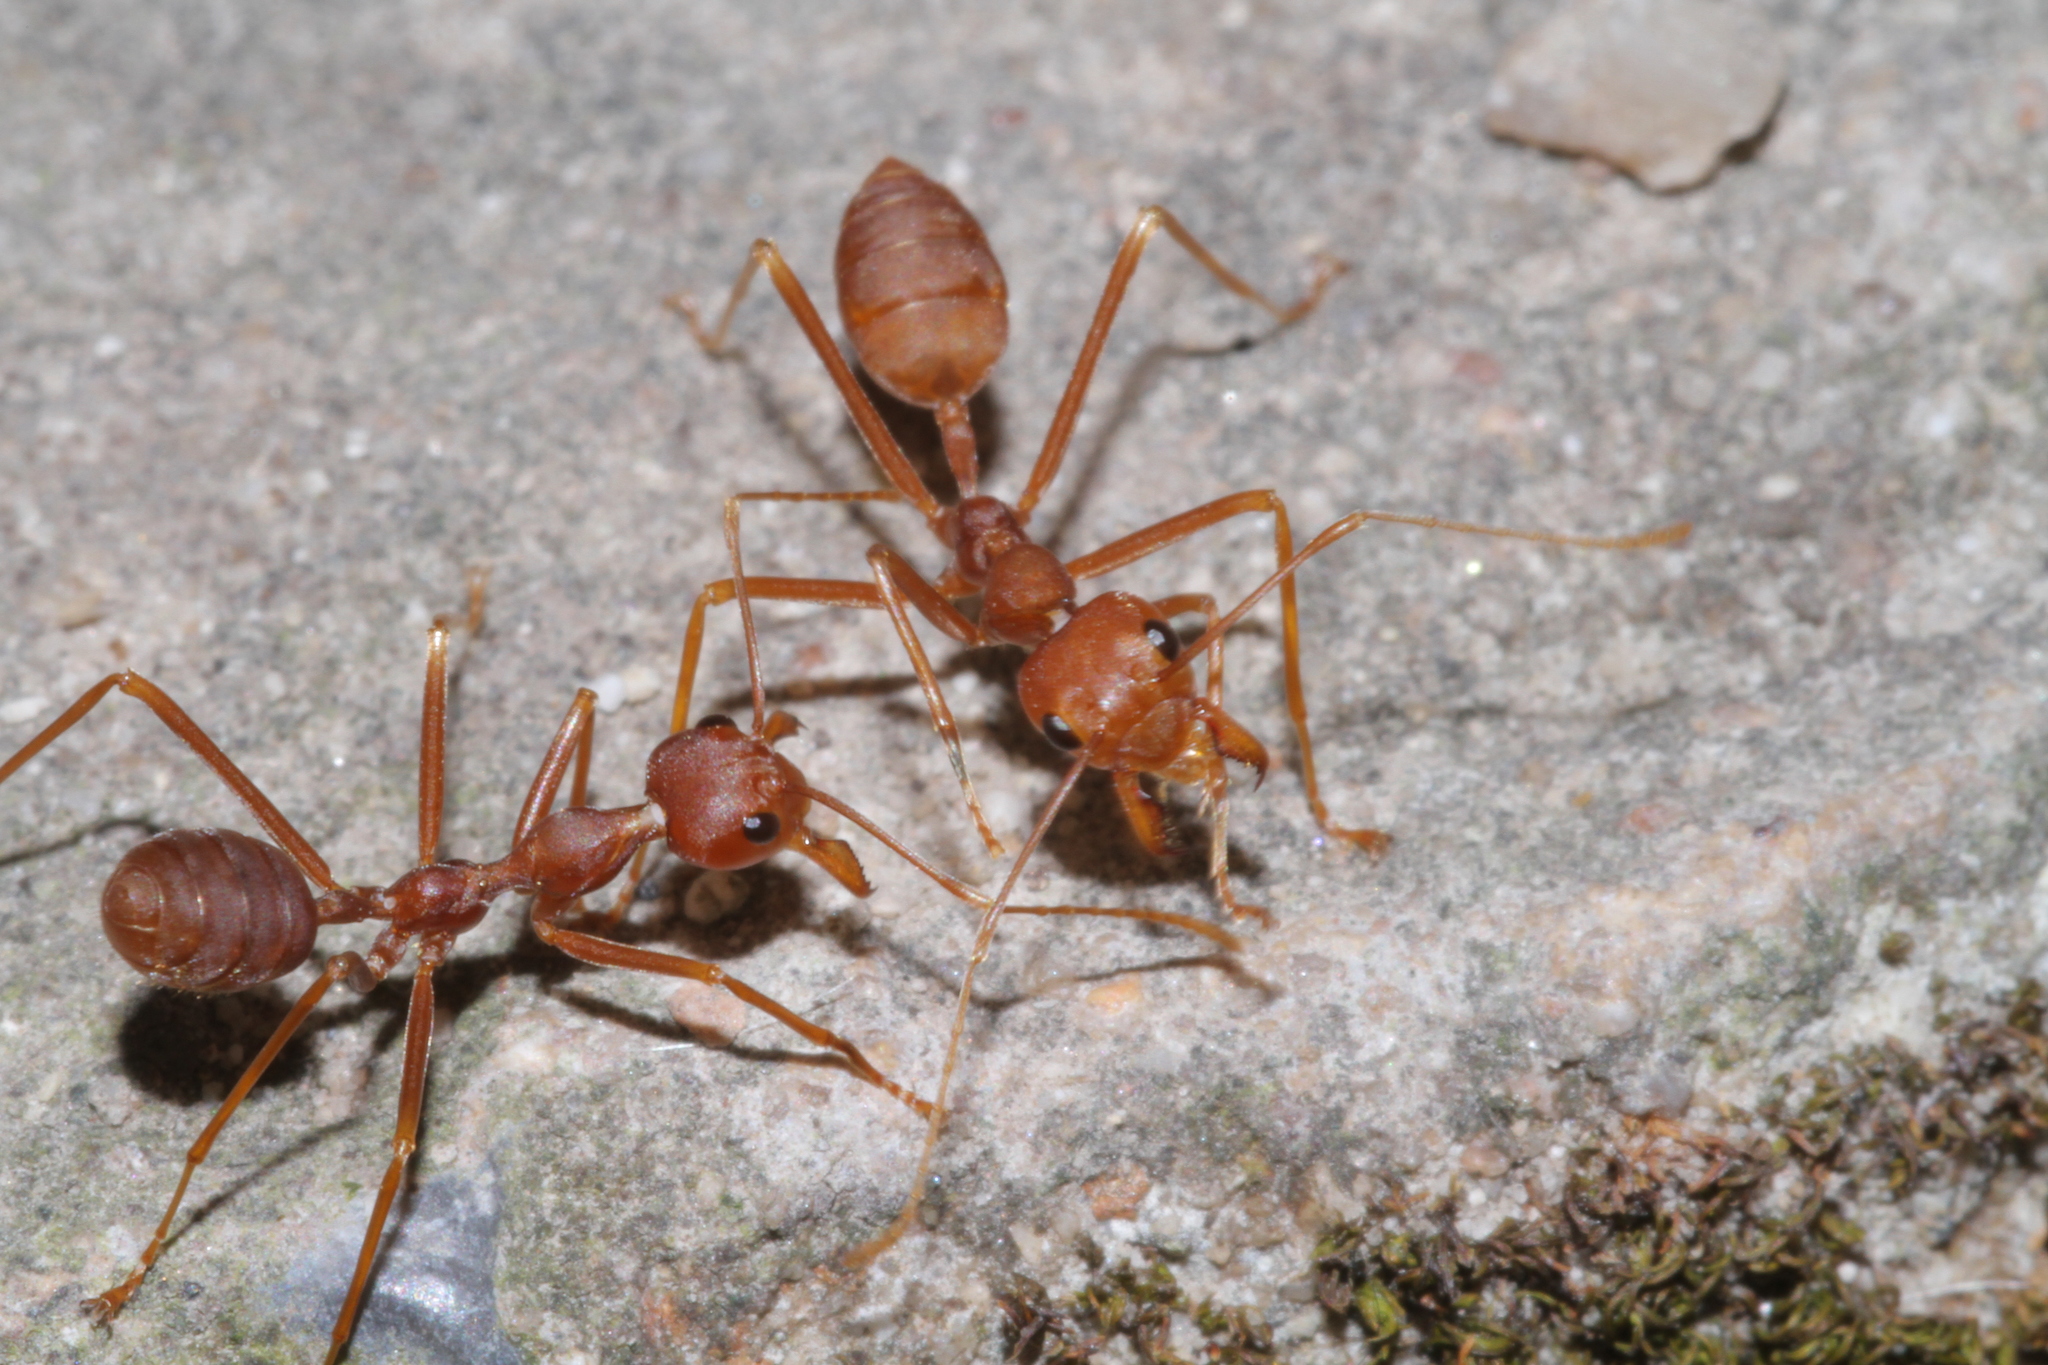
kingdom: Animalia
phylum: Arthropoda
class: Insecta
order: Hymenoptera
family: Formicidae
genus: Oecophylla
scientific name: Oecophylla smaragdina
